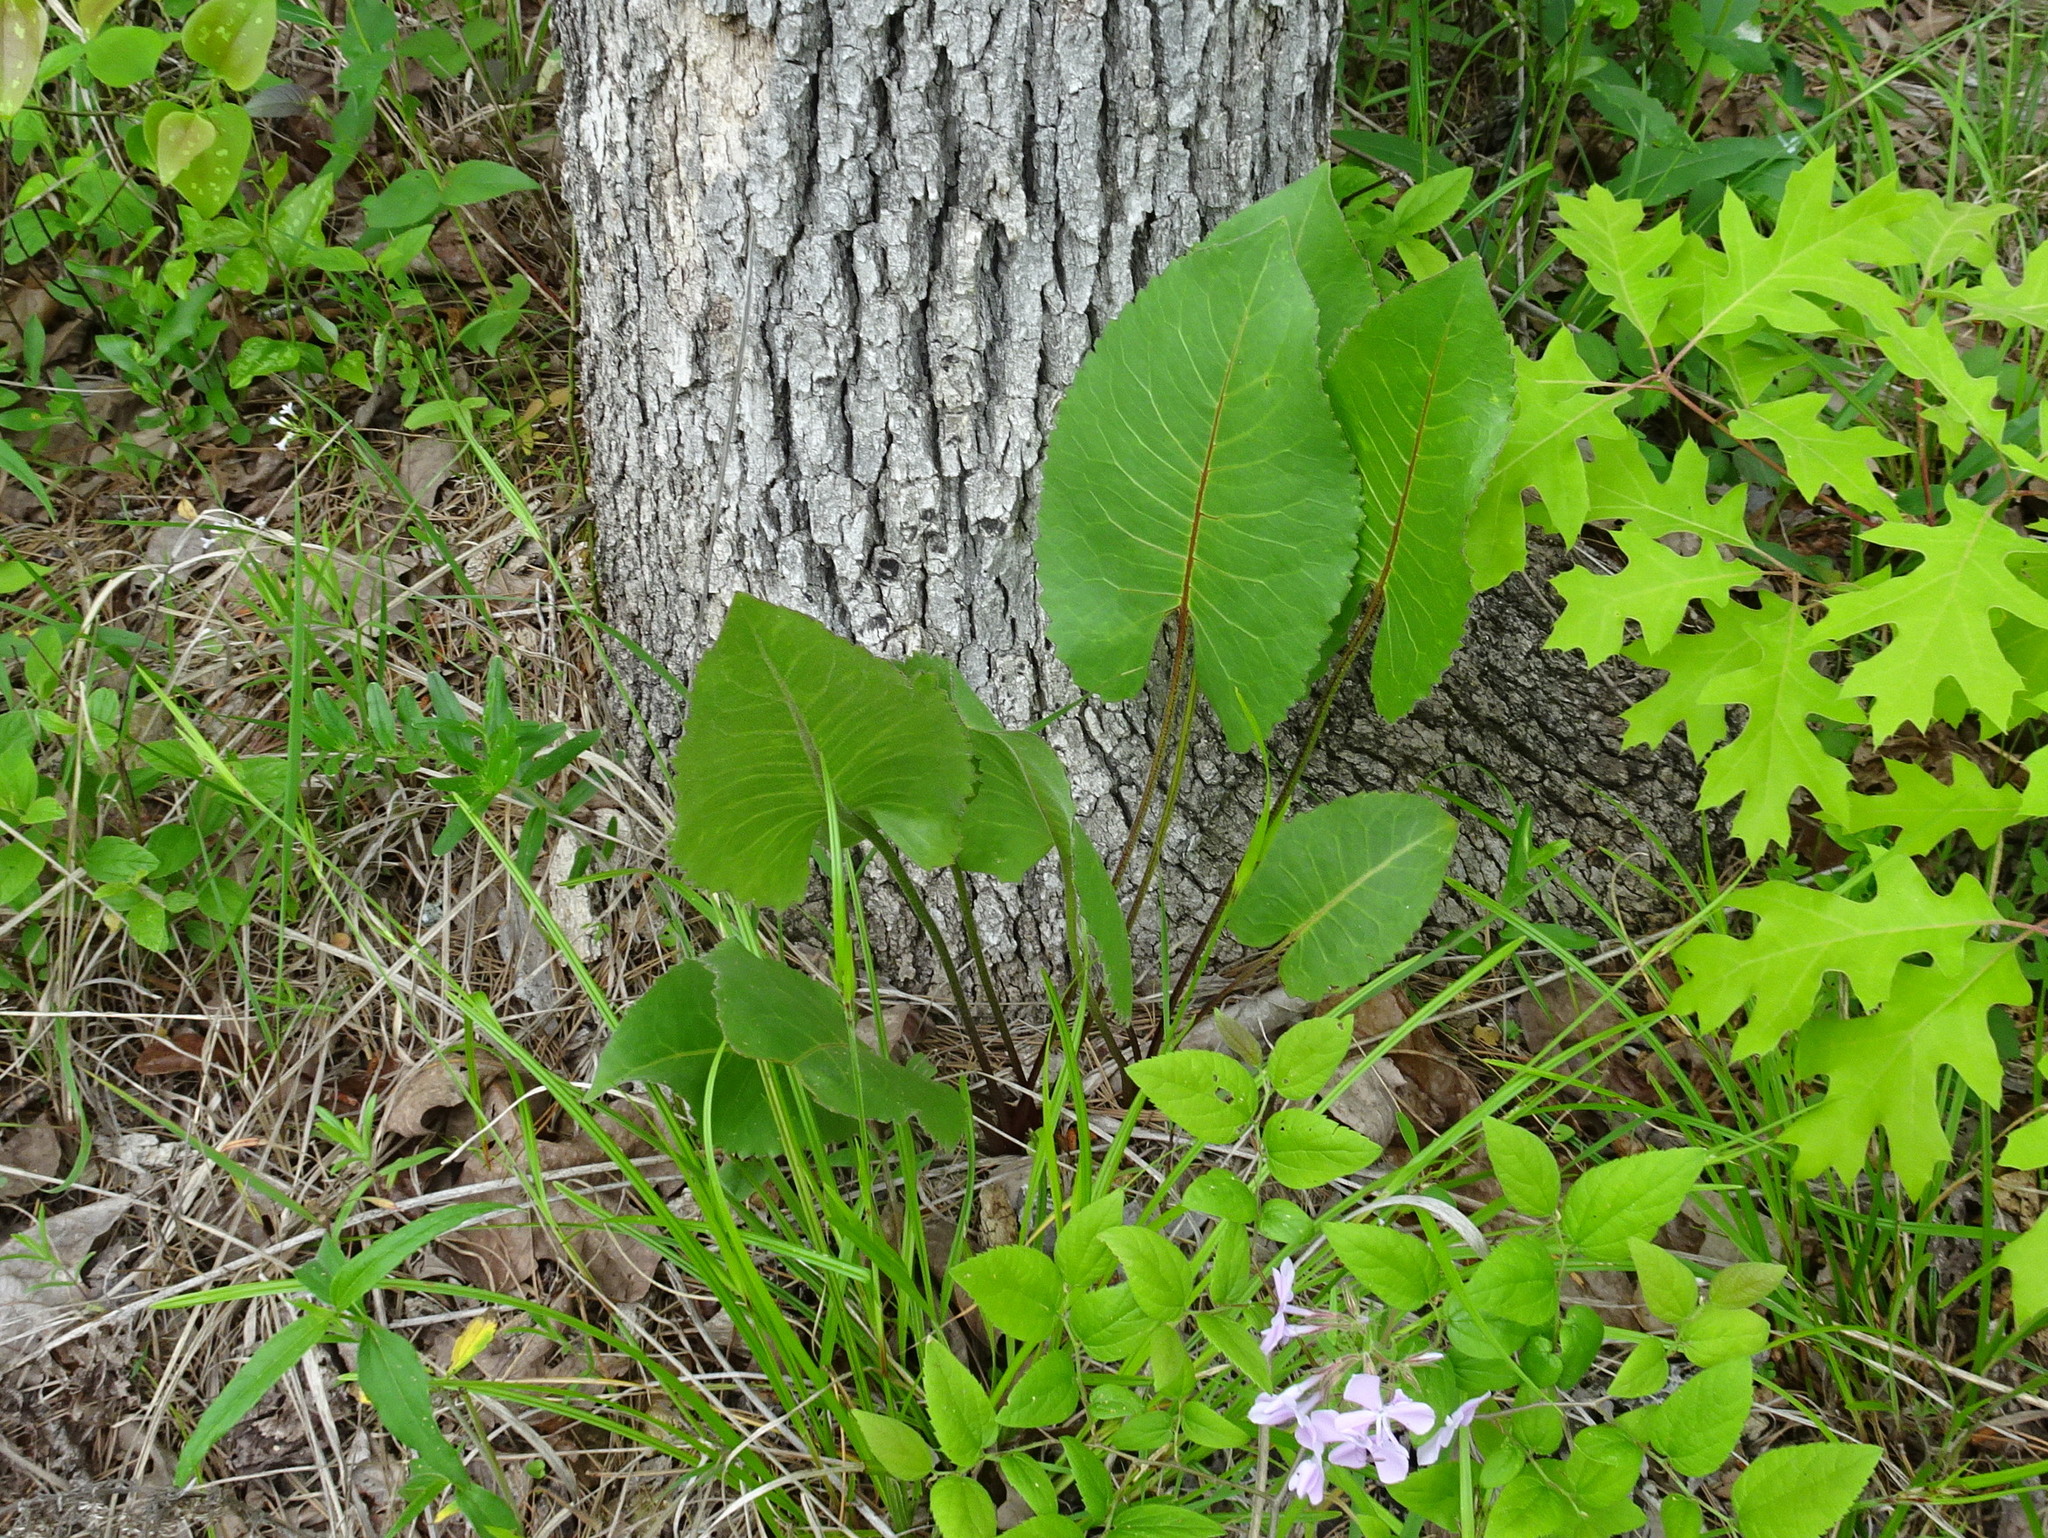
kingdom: Plantae
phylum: Tracheophyta
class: Magnoliopsida
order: Asterales
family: Asteraceae
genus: Silphium
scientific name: Silphium terebinthinaceum
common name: Basal-leaf rosinweed
